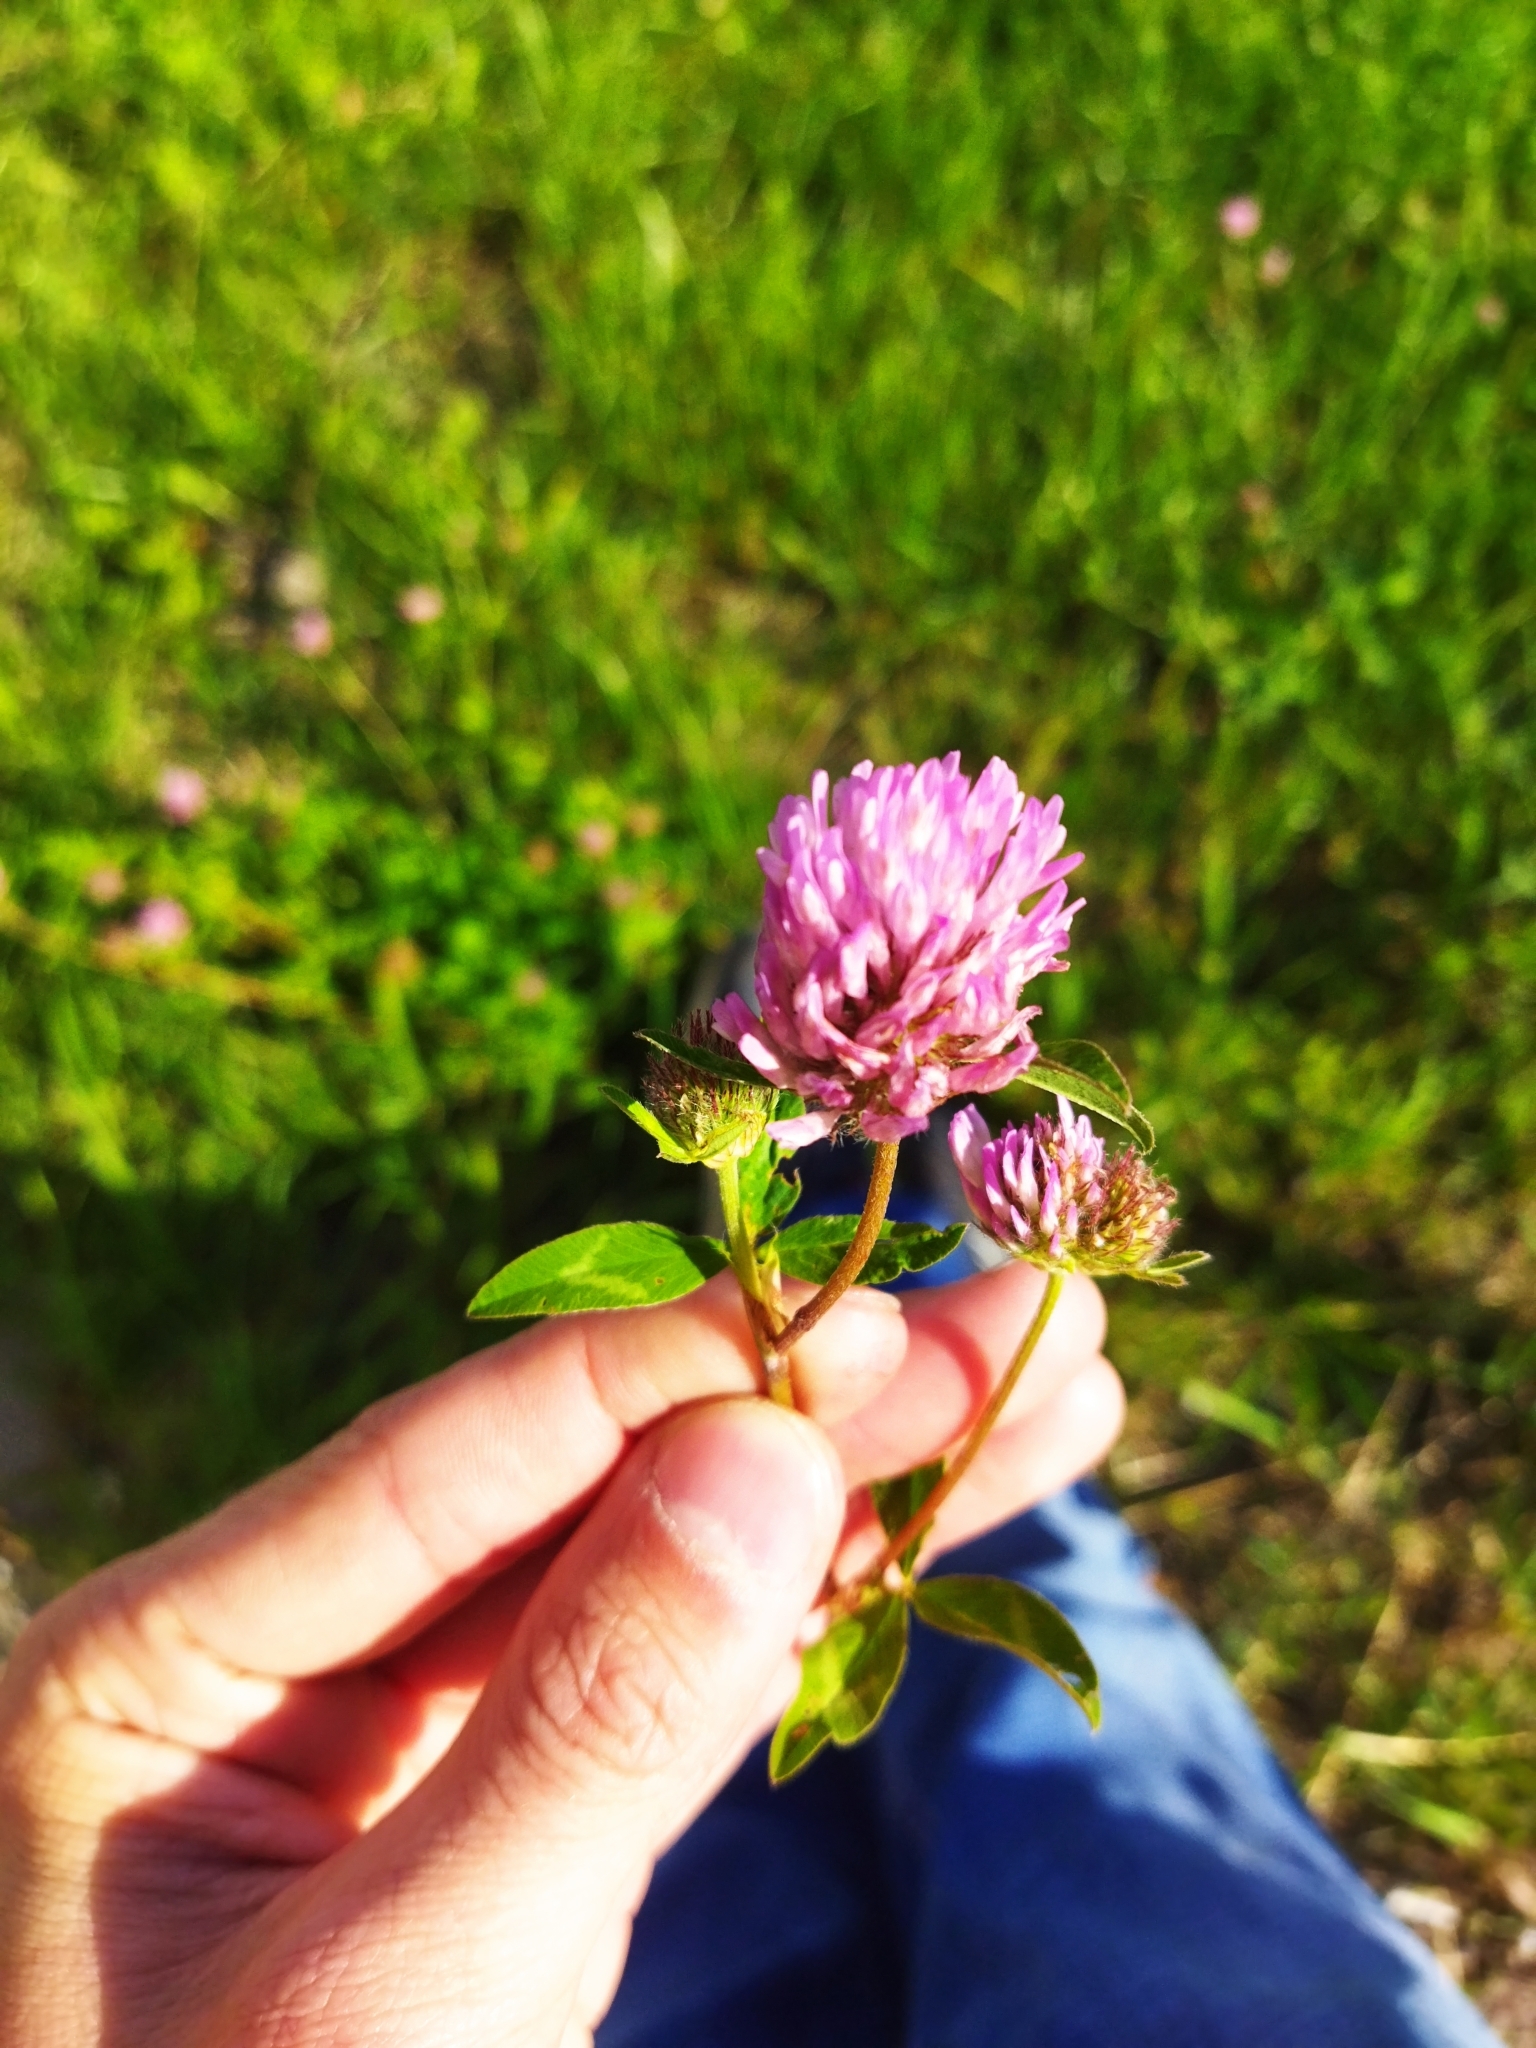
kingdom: Plantae
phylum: Tracheophyta
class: Magnoliopsida
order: Fabales
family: Fabaceae
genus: Trifolium
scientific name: Trifolium pratense
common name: Red clover
